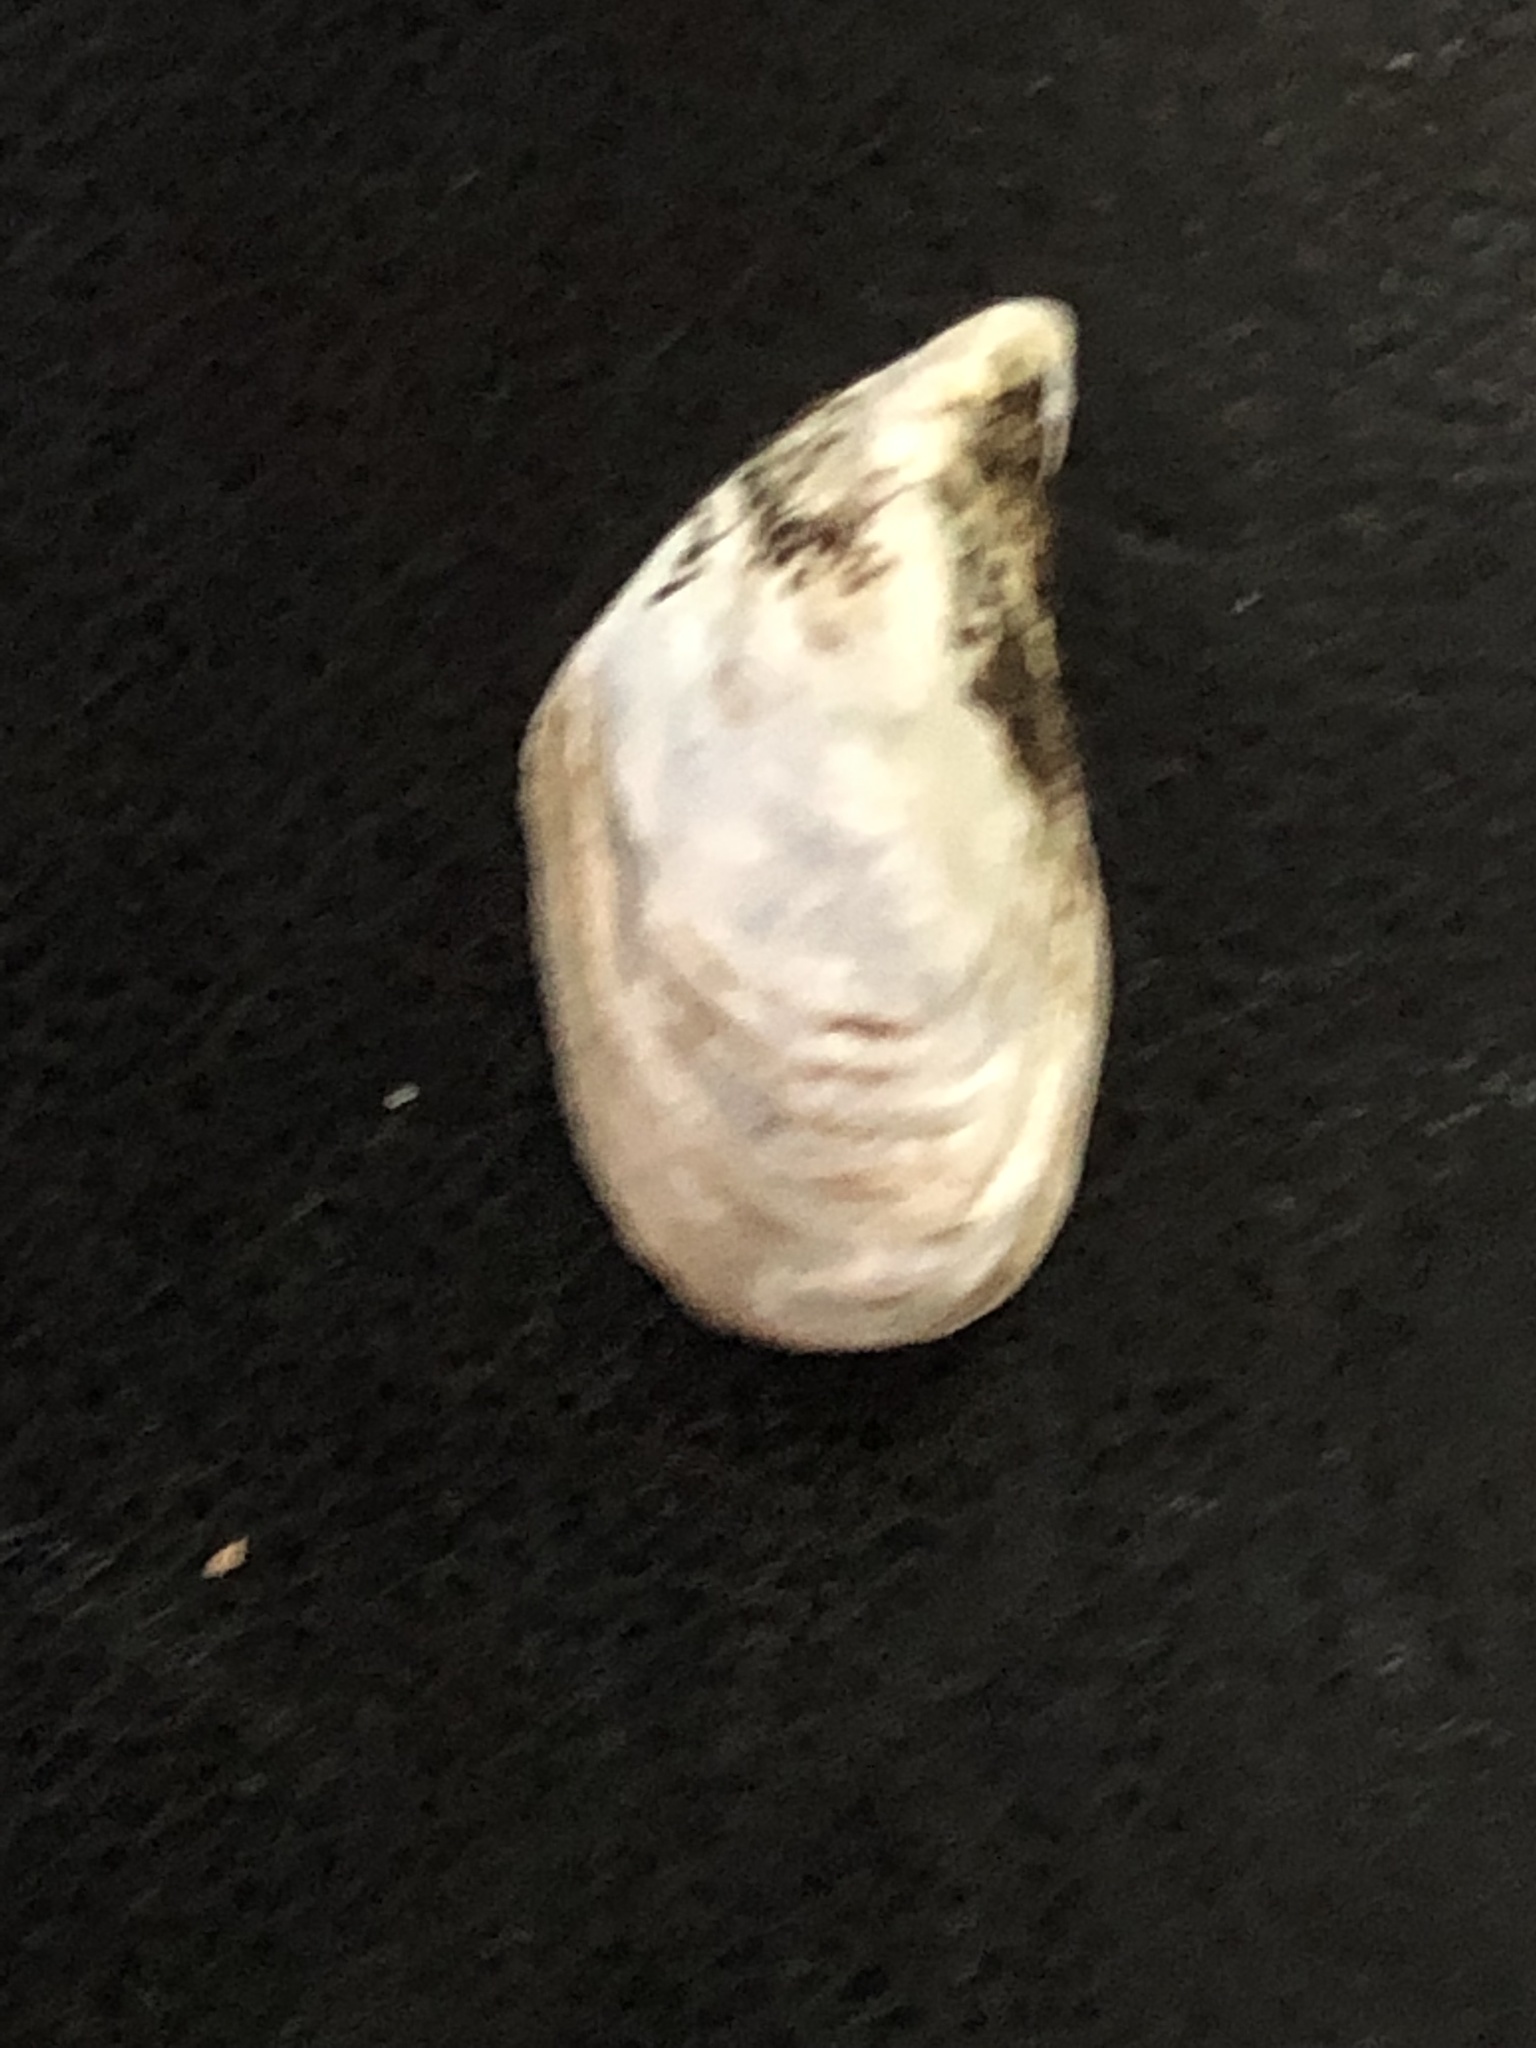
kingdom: Animalia
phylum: Mollusca
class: Bivalvia
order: Myida
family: Dreissenidae
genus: Dreissena
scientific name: Dreissena bugensis
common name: Quagga mussel
